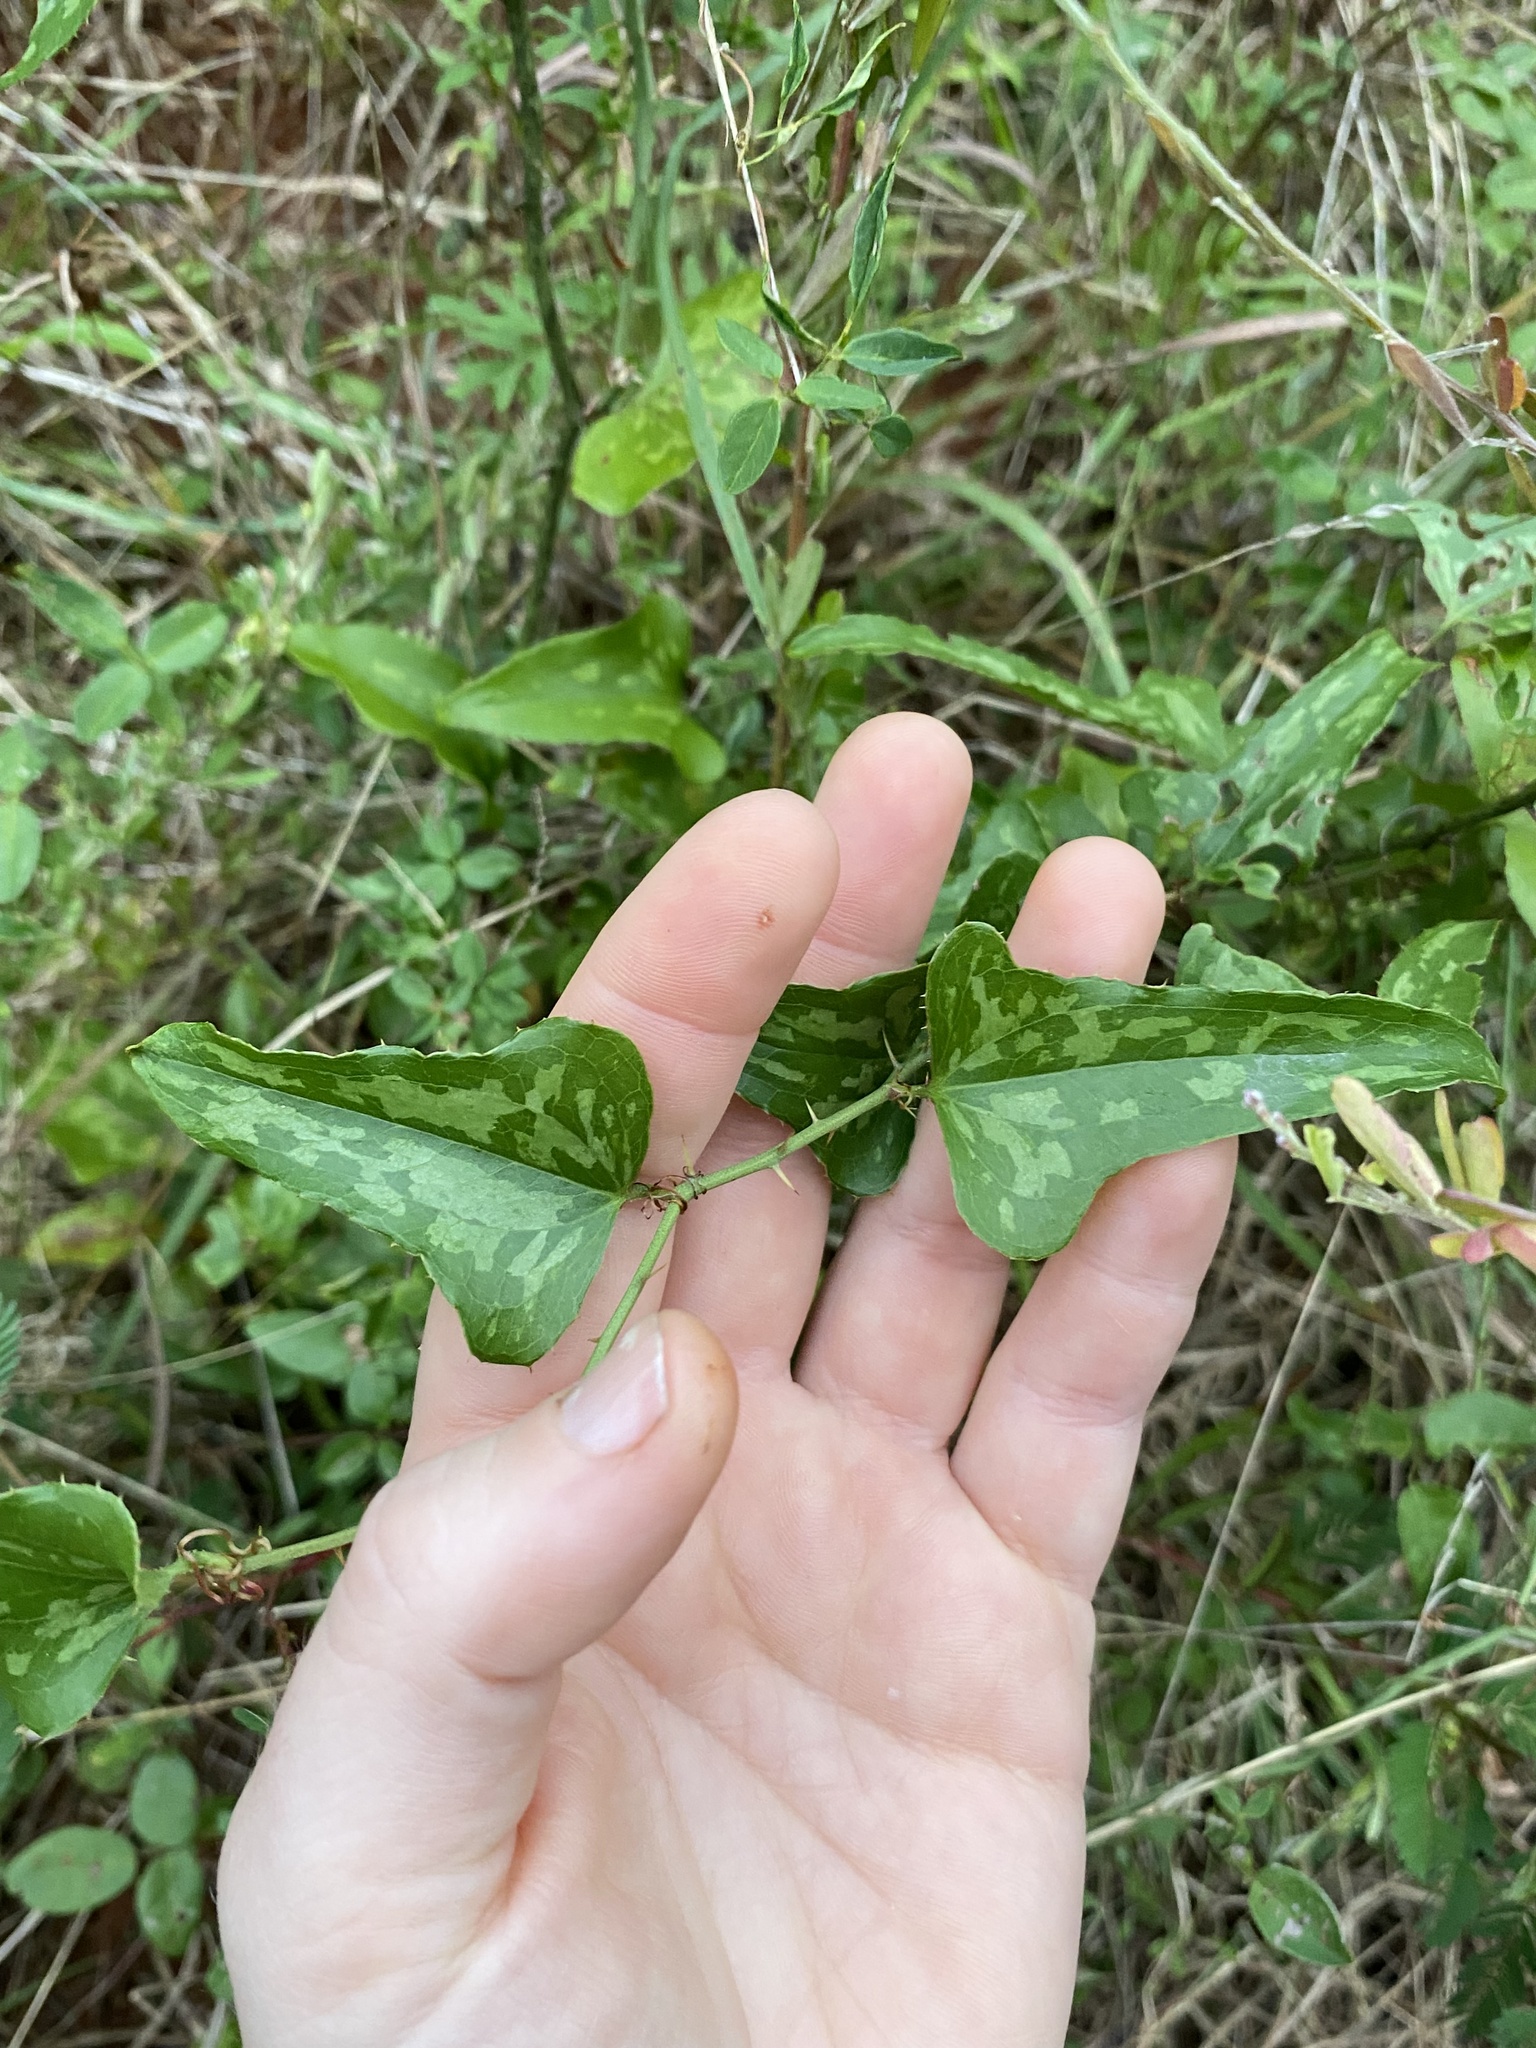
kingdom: Plantae
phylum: Tracheophyta
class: Liliopsida
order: Liliales
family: Smilacaceae
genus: Smilax
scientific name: Smilax bona-nox
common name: Catbrier
